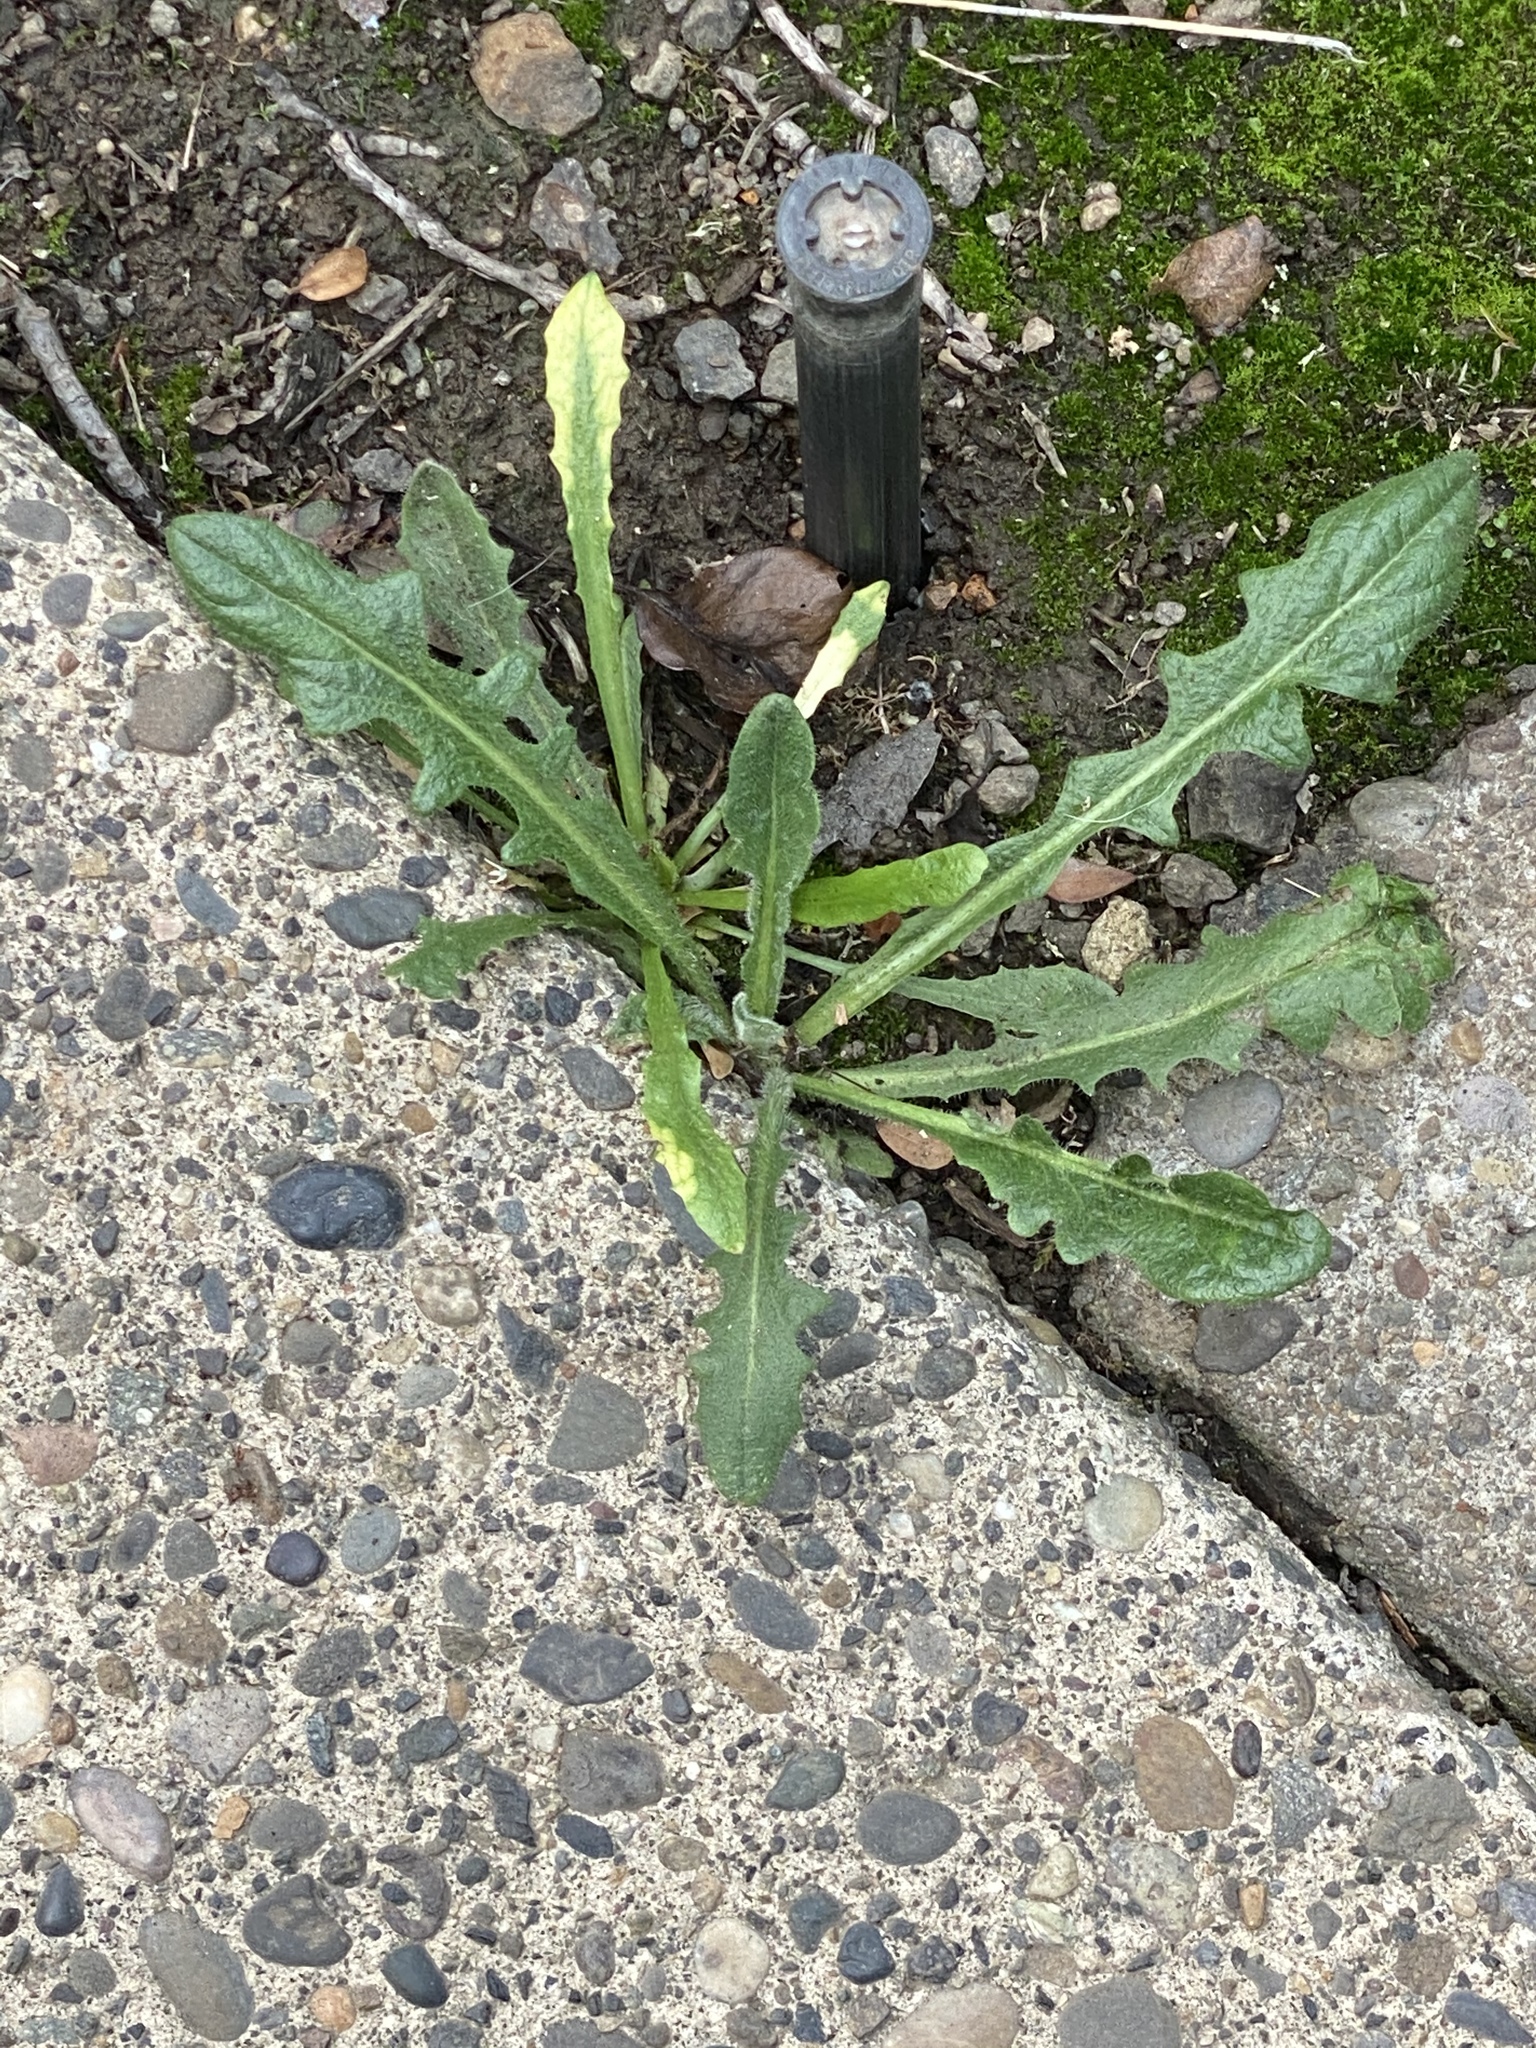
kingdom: Plantae
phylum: Tracheophyta
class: Magnoliopsida
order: Asterales
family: Asteraceae
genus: Hypochaeris
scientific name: Hypochaeris radicata
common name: Flatweed
